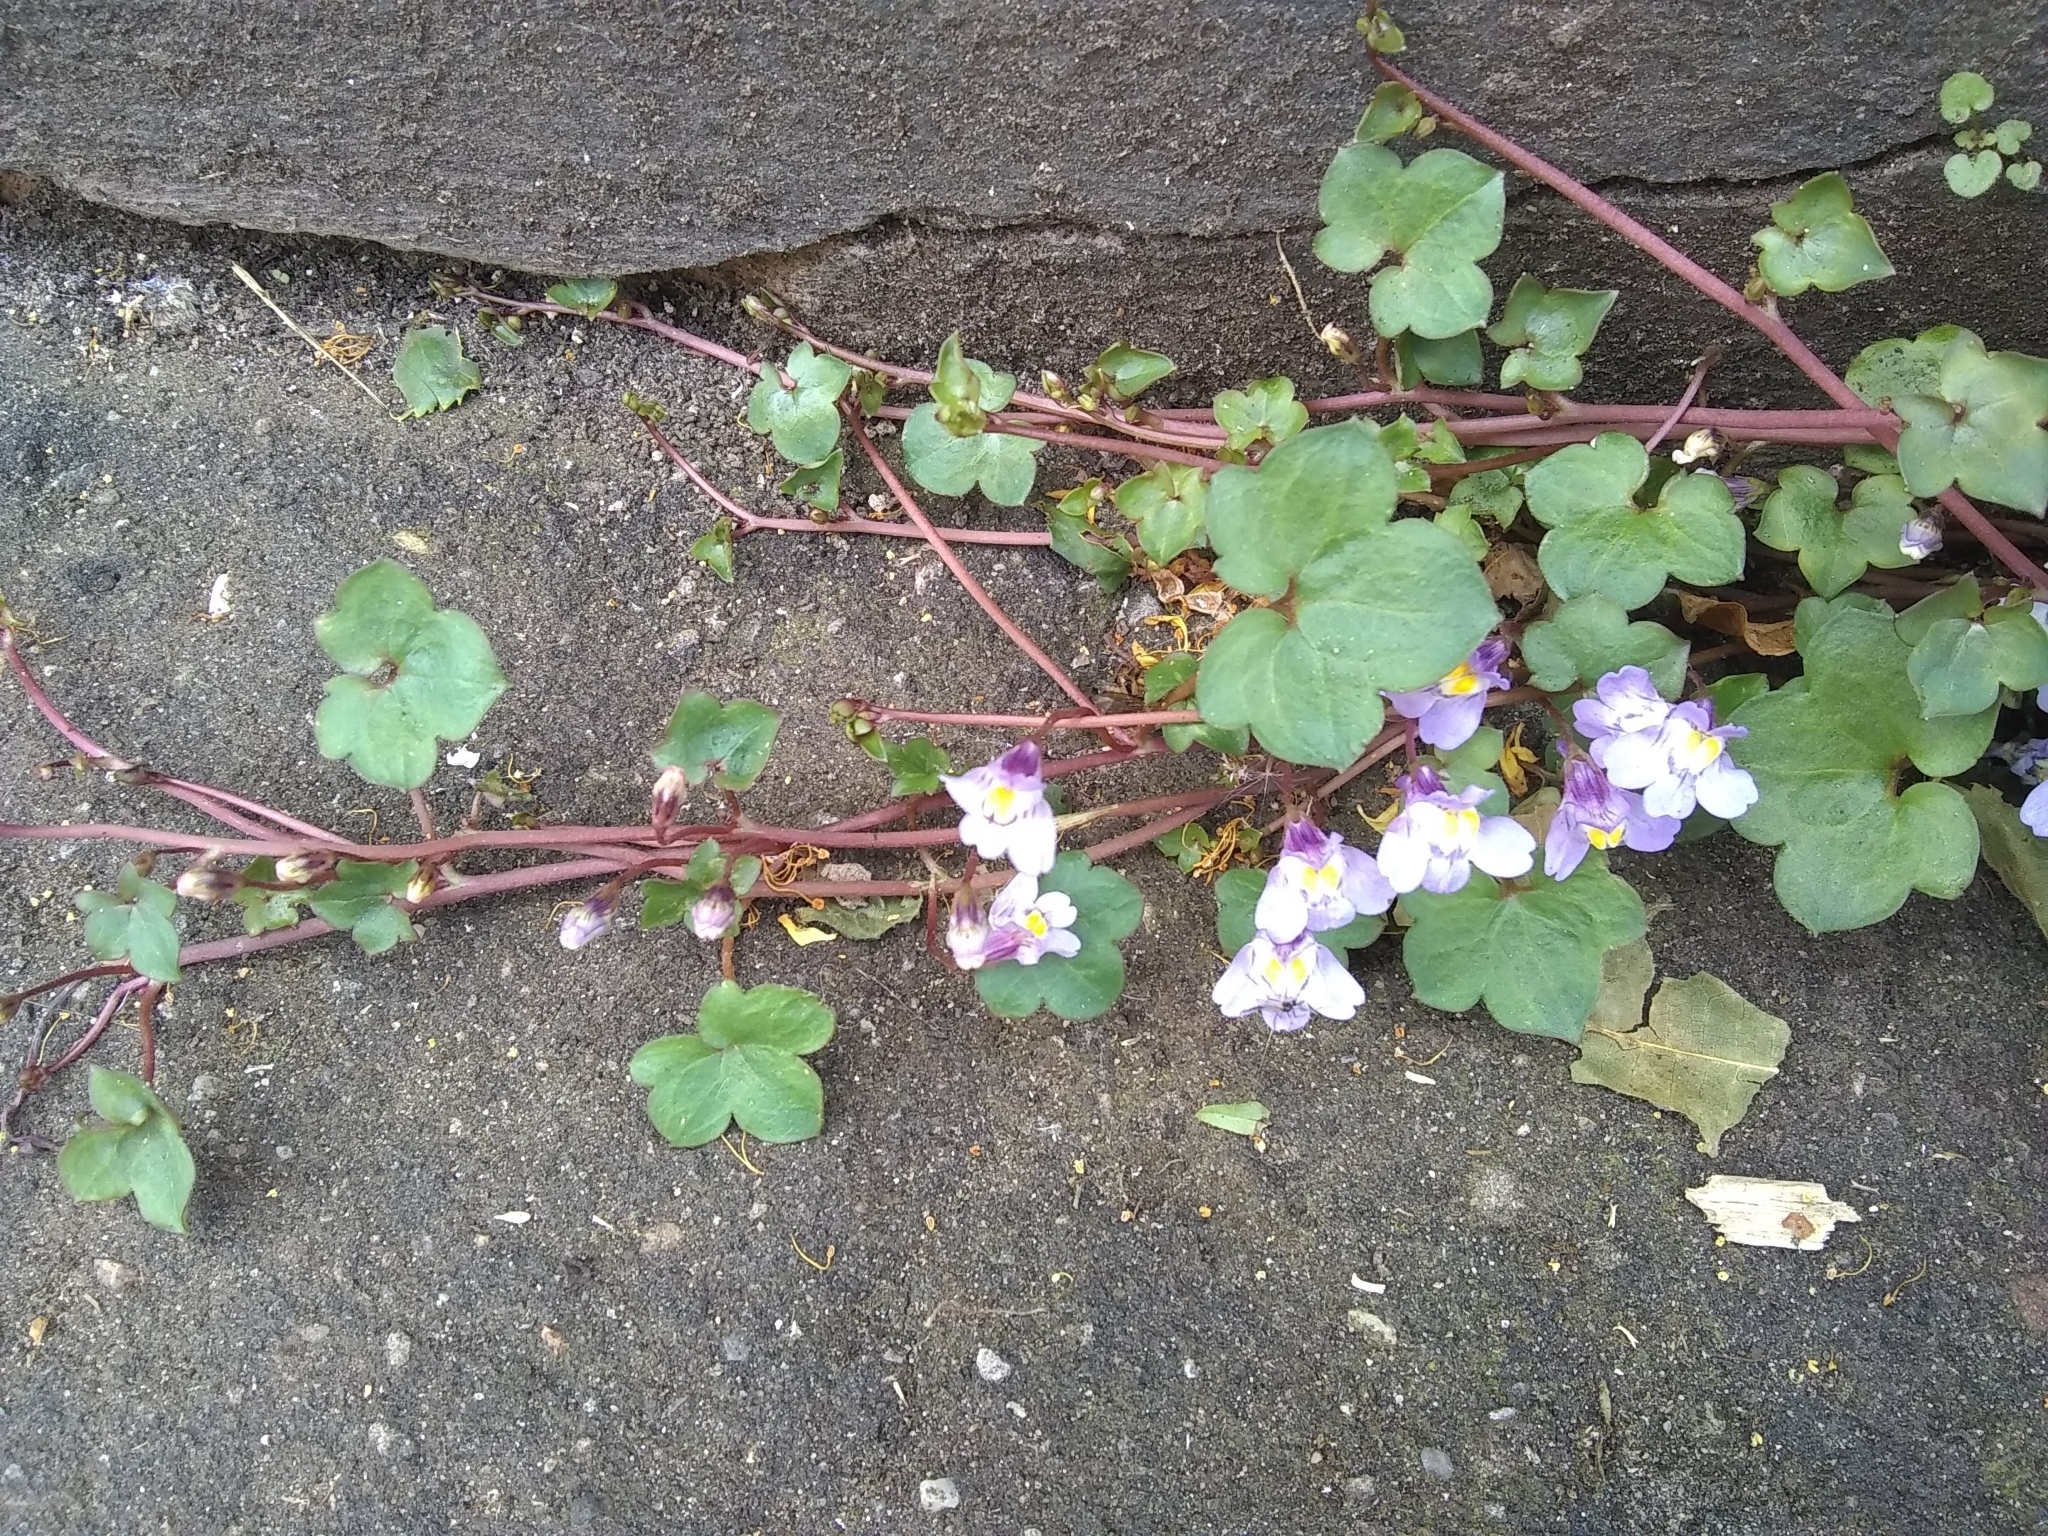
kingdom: Plantae
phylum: Tracheophyta
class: Magnoliopsida
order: Lamiales
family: Plantaginaceae
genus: Cymbalaria
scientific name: Cymbalaria muralis
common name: Ivy-leaved toadflax
